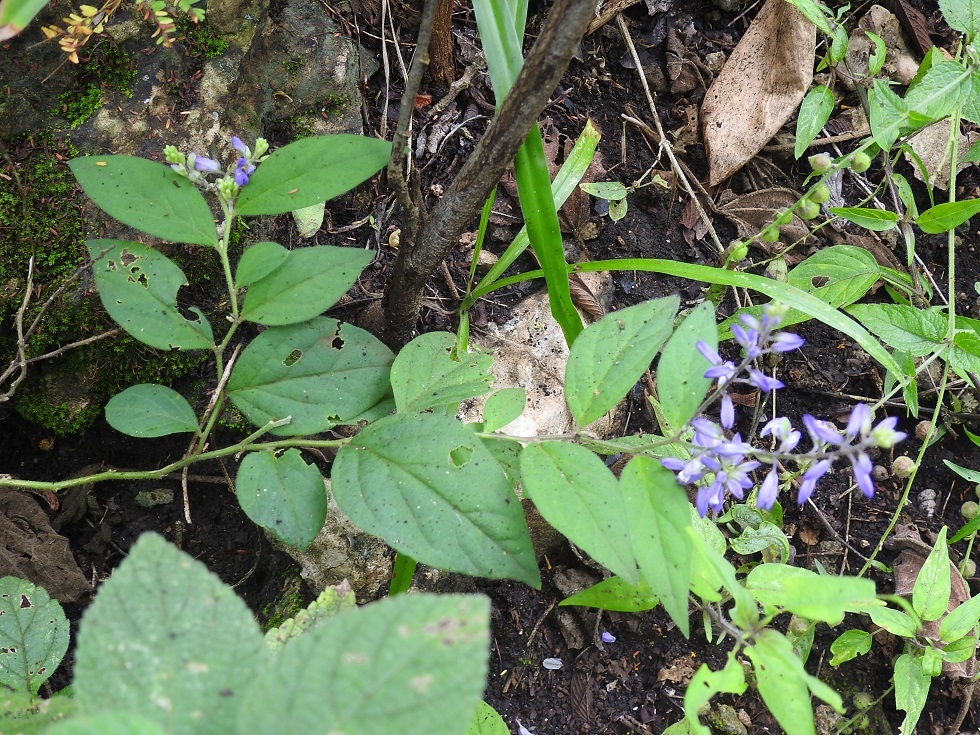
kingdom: Plantae
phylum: Tracheophyta
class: Magnoliopsida
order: Fabales
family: Polygalaceae
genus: Hebecarpa
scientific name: Hebecarpa costaricensis
